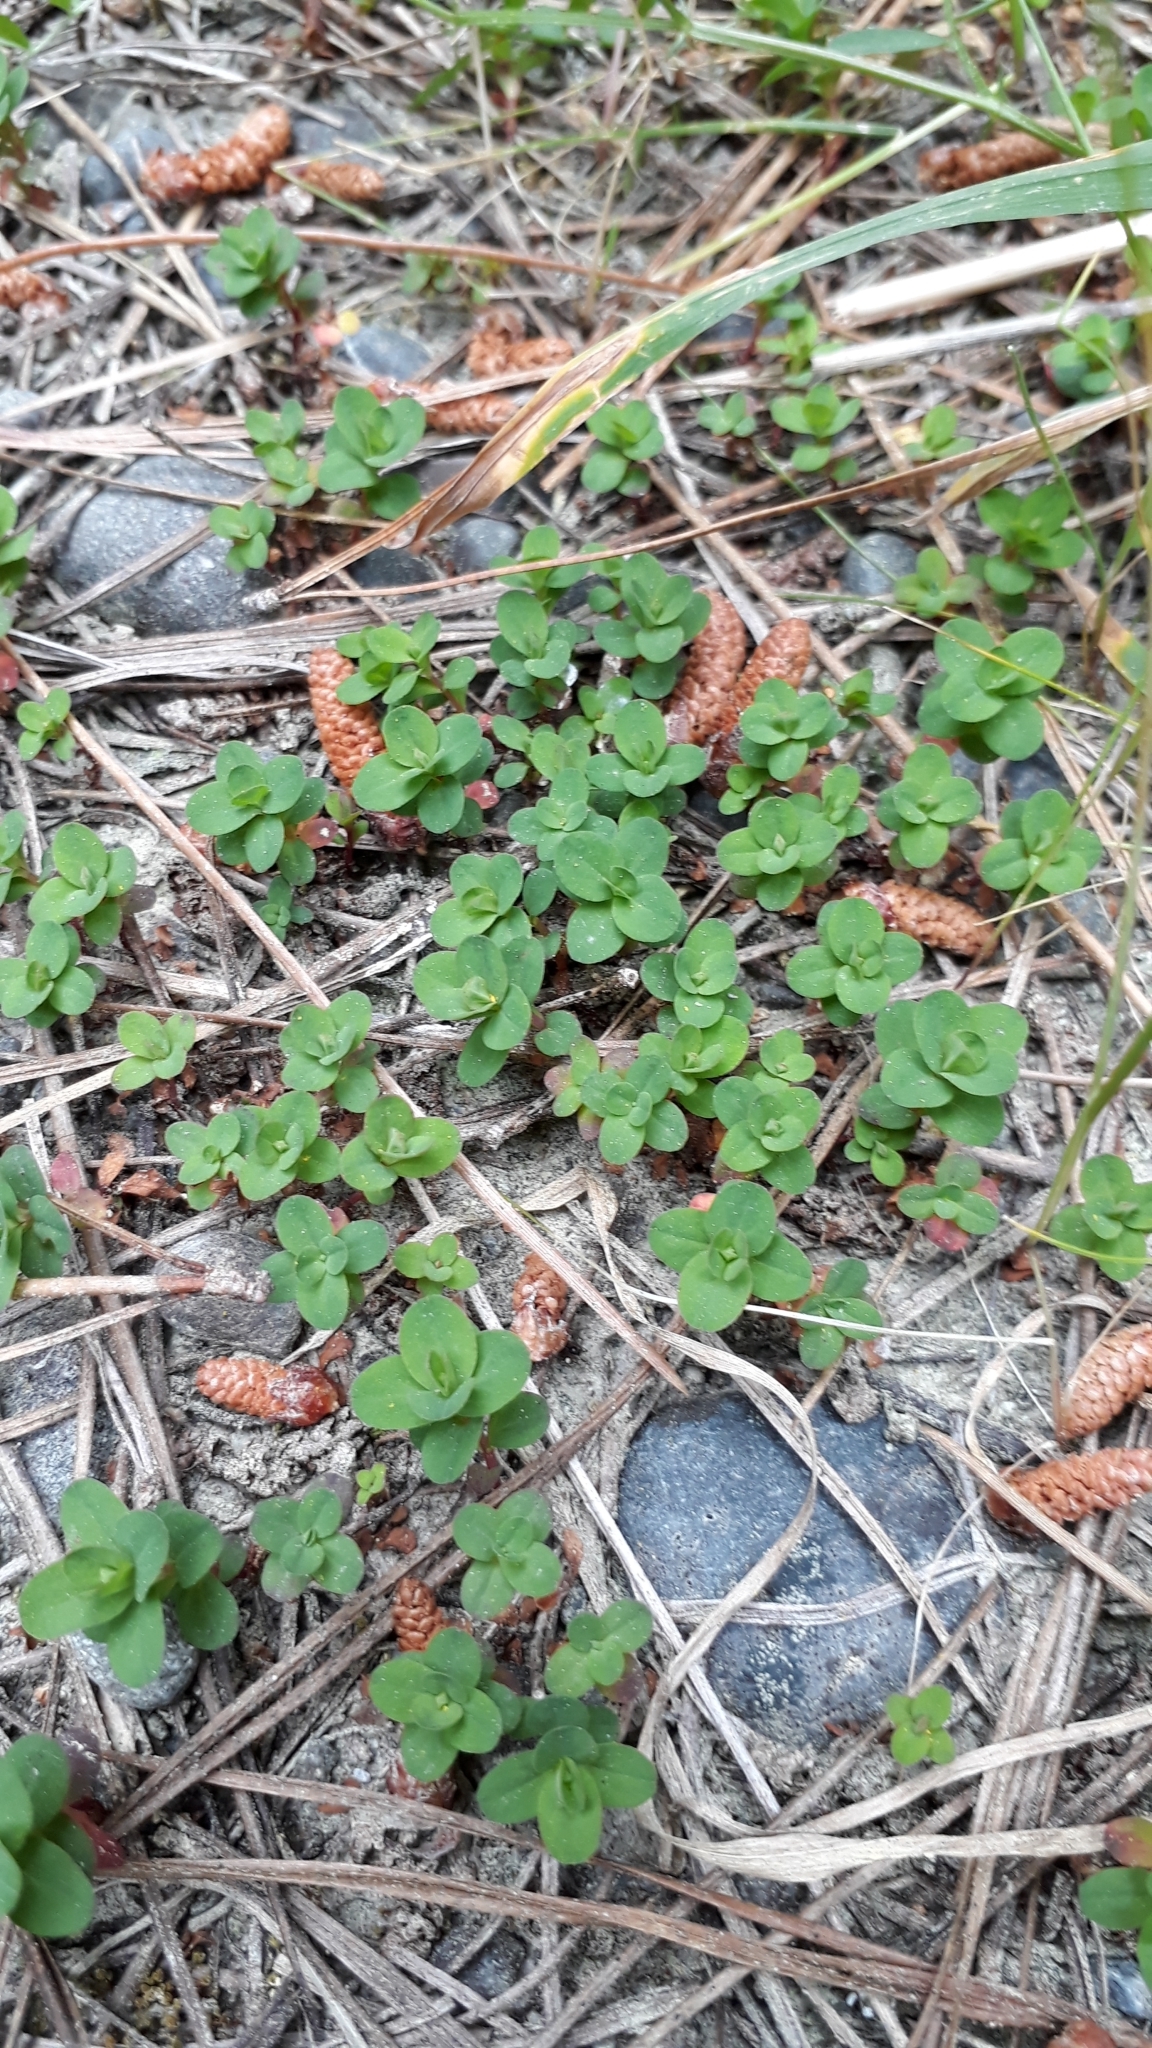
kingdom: Plantae
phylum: Tracheophyta
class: Magnoliopsida
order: Malpighiales
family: Hypericaceae
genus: Hypericum
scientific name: Hypericum perforatum
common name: Common st. johnswort
